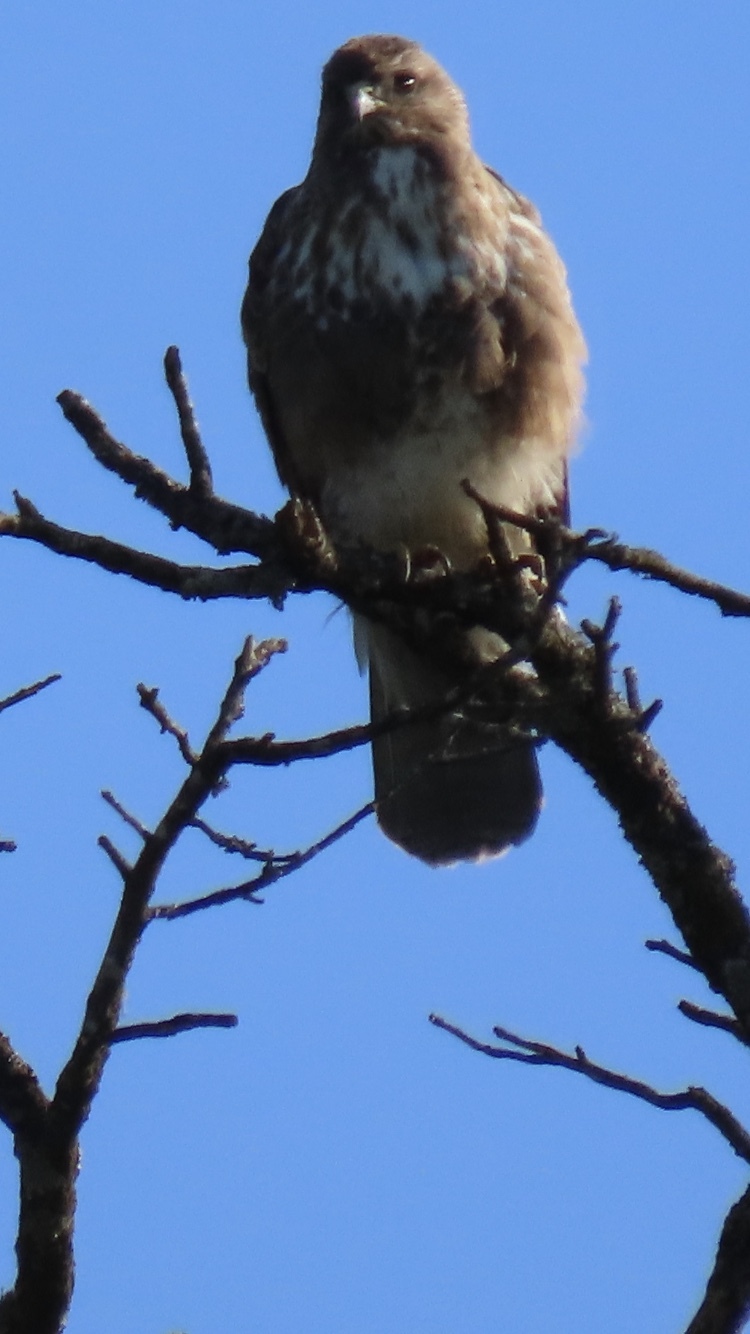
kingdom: Animalia
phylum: Chordata
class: Aves
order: Accipitriformes
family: Accipitridae
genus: Buteo
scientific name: Buteo buteo
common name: Common buzzard
